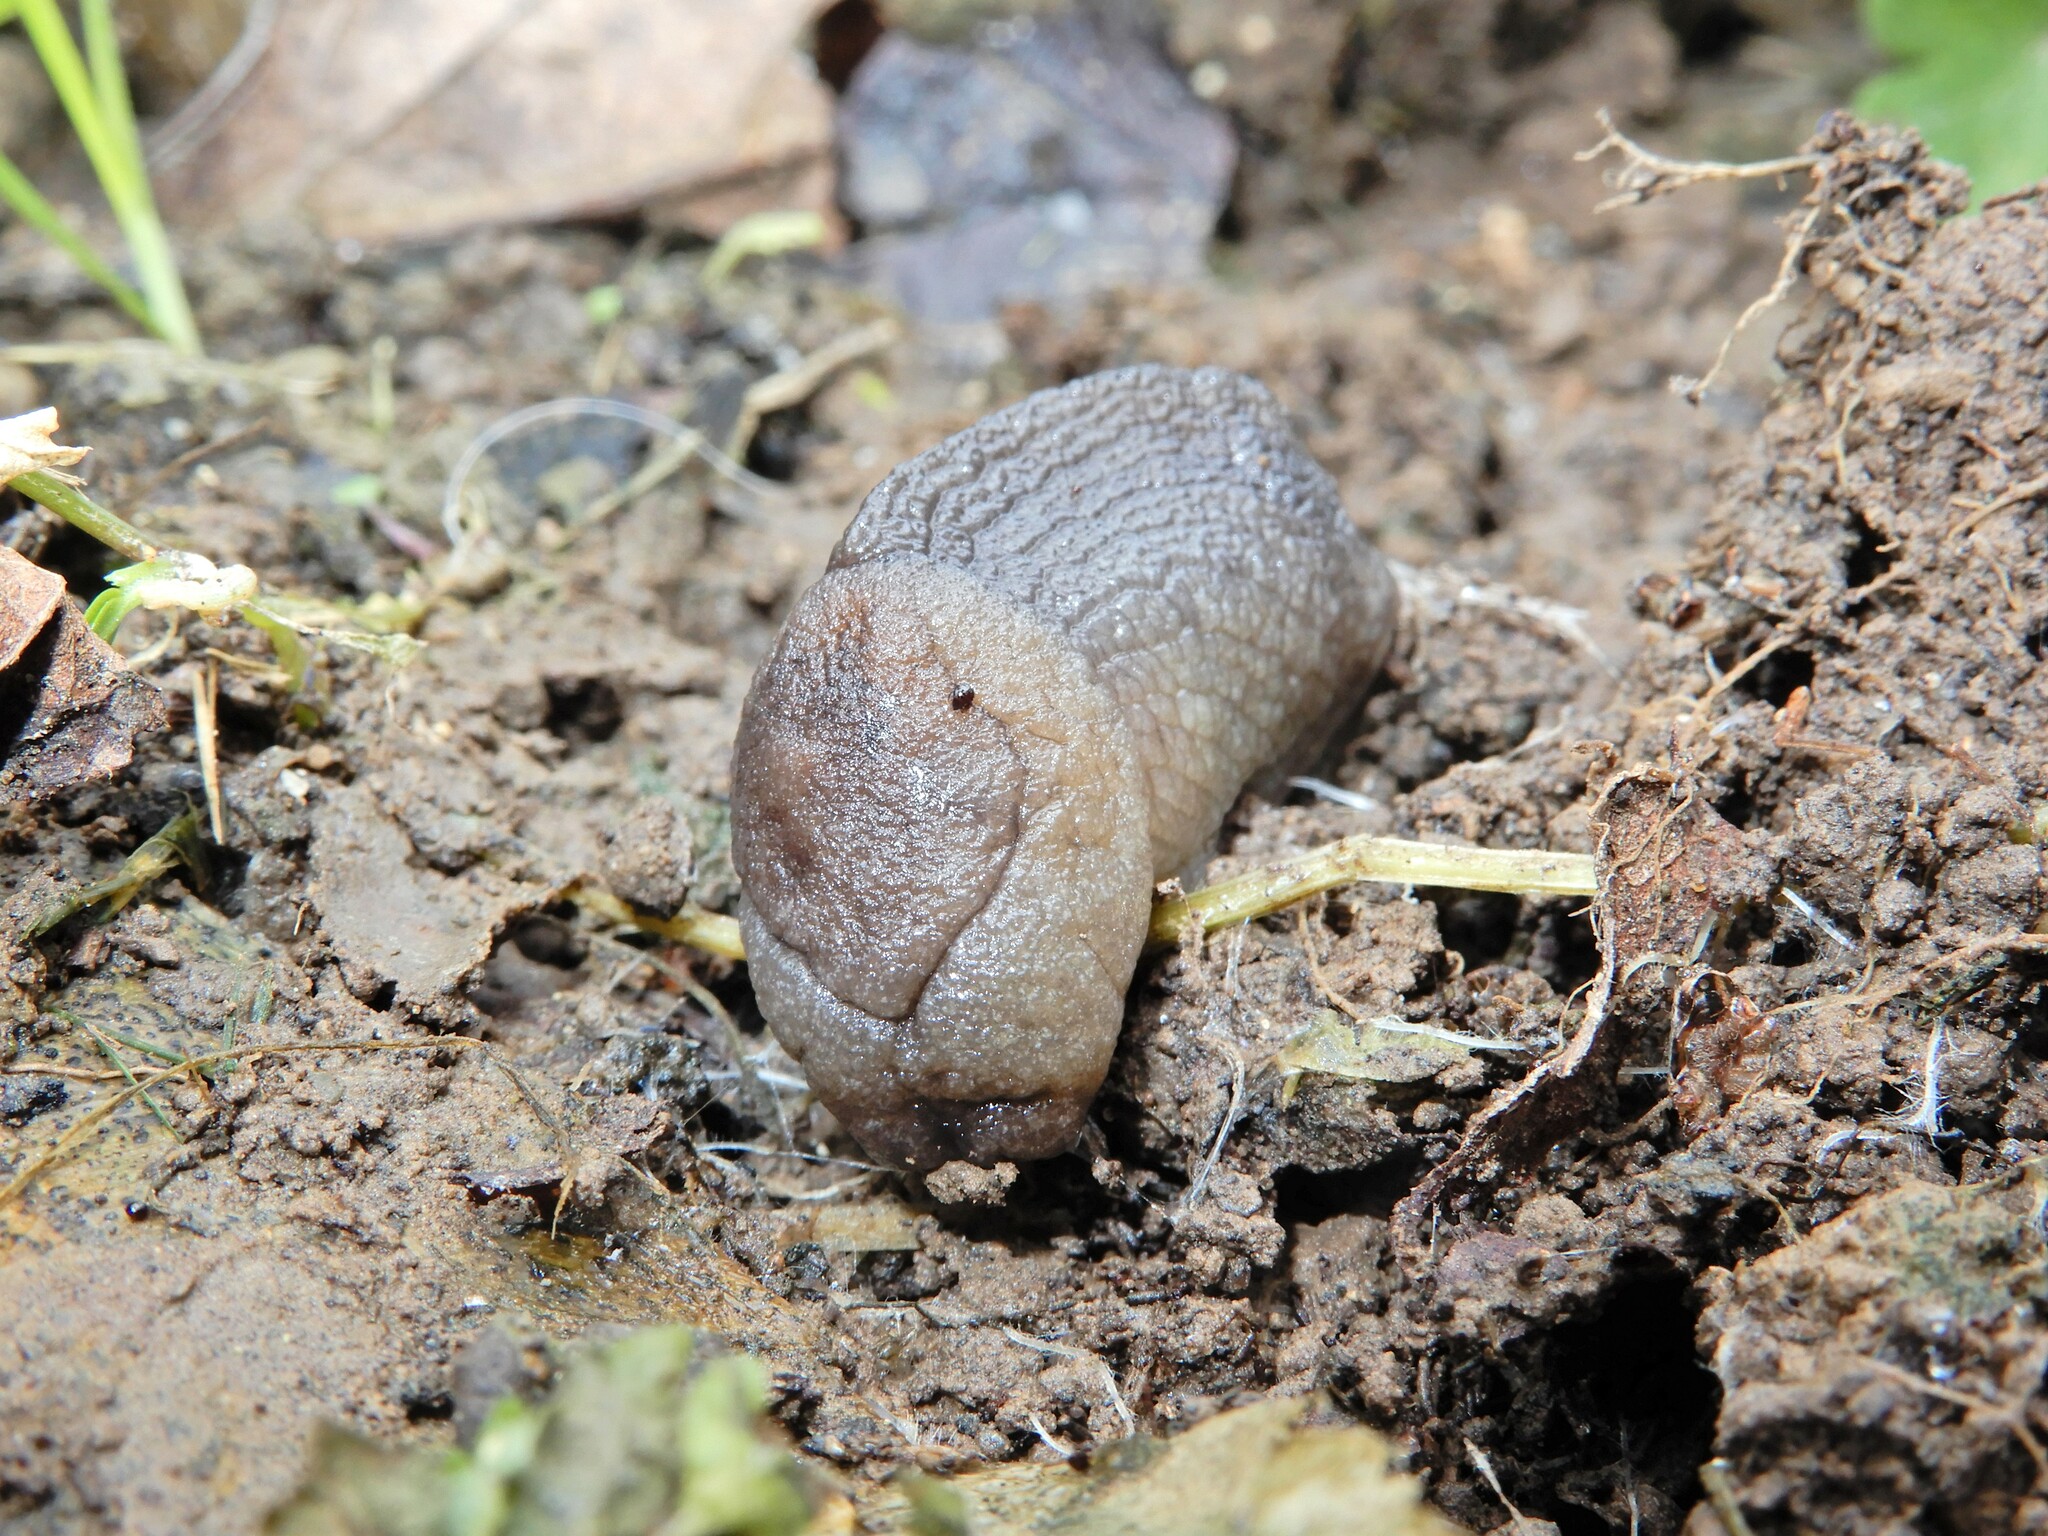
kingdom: Animalia
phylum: Mollusca
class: Gastropoda
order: Stylommatophora
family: Milacidae
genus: Milax
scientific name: Milax gagates
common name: Greenhouse slug
